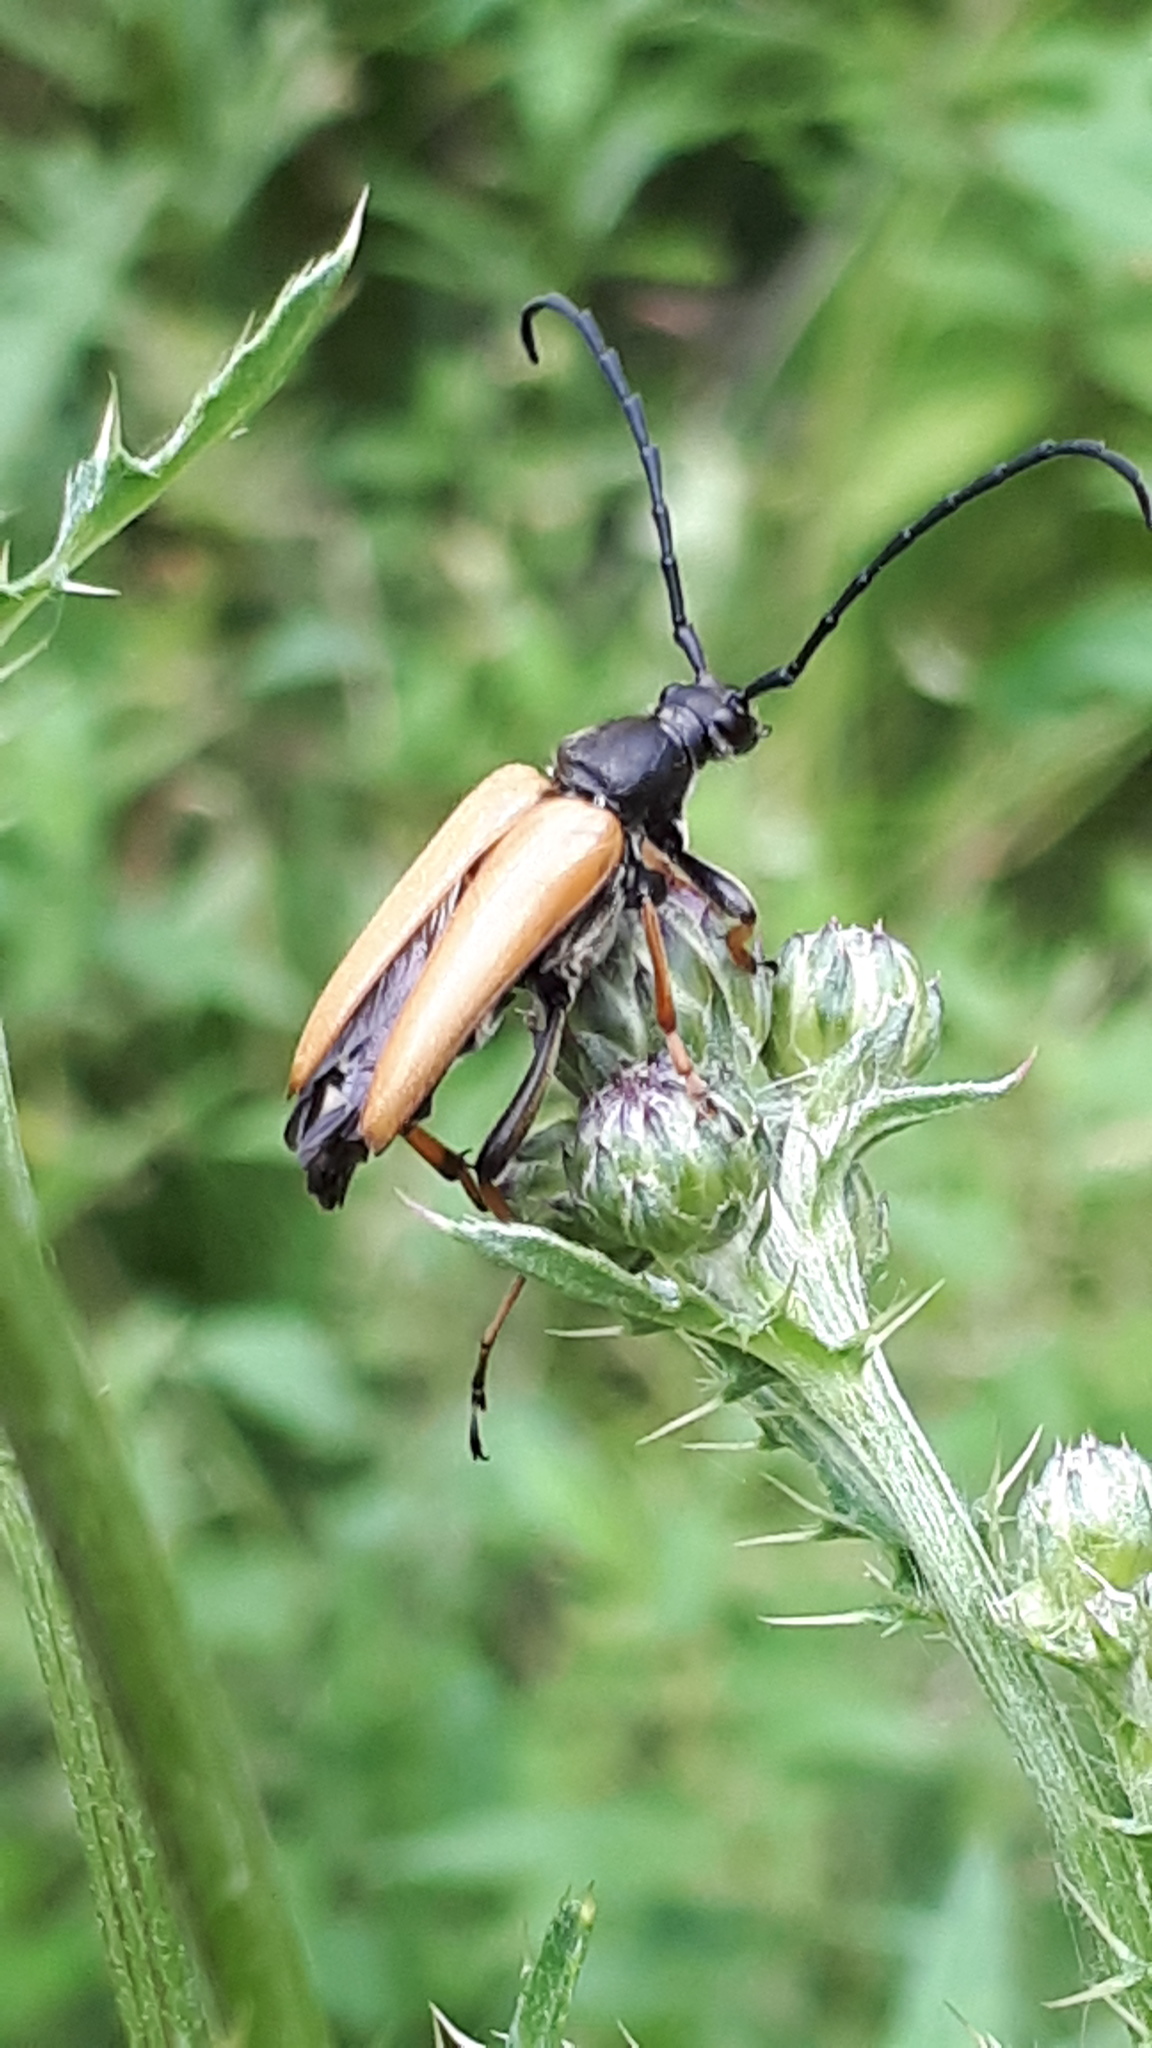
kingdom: Animalia
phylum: Arthropoda
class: Insecta
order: Coleoptera
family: Cerambycidae
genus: Stictoleptura
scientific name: Stictoleptura rubra
